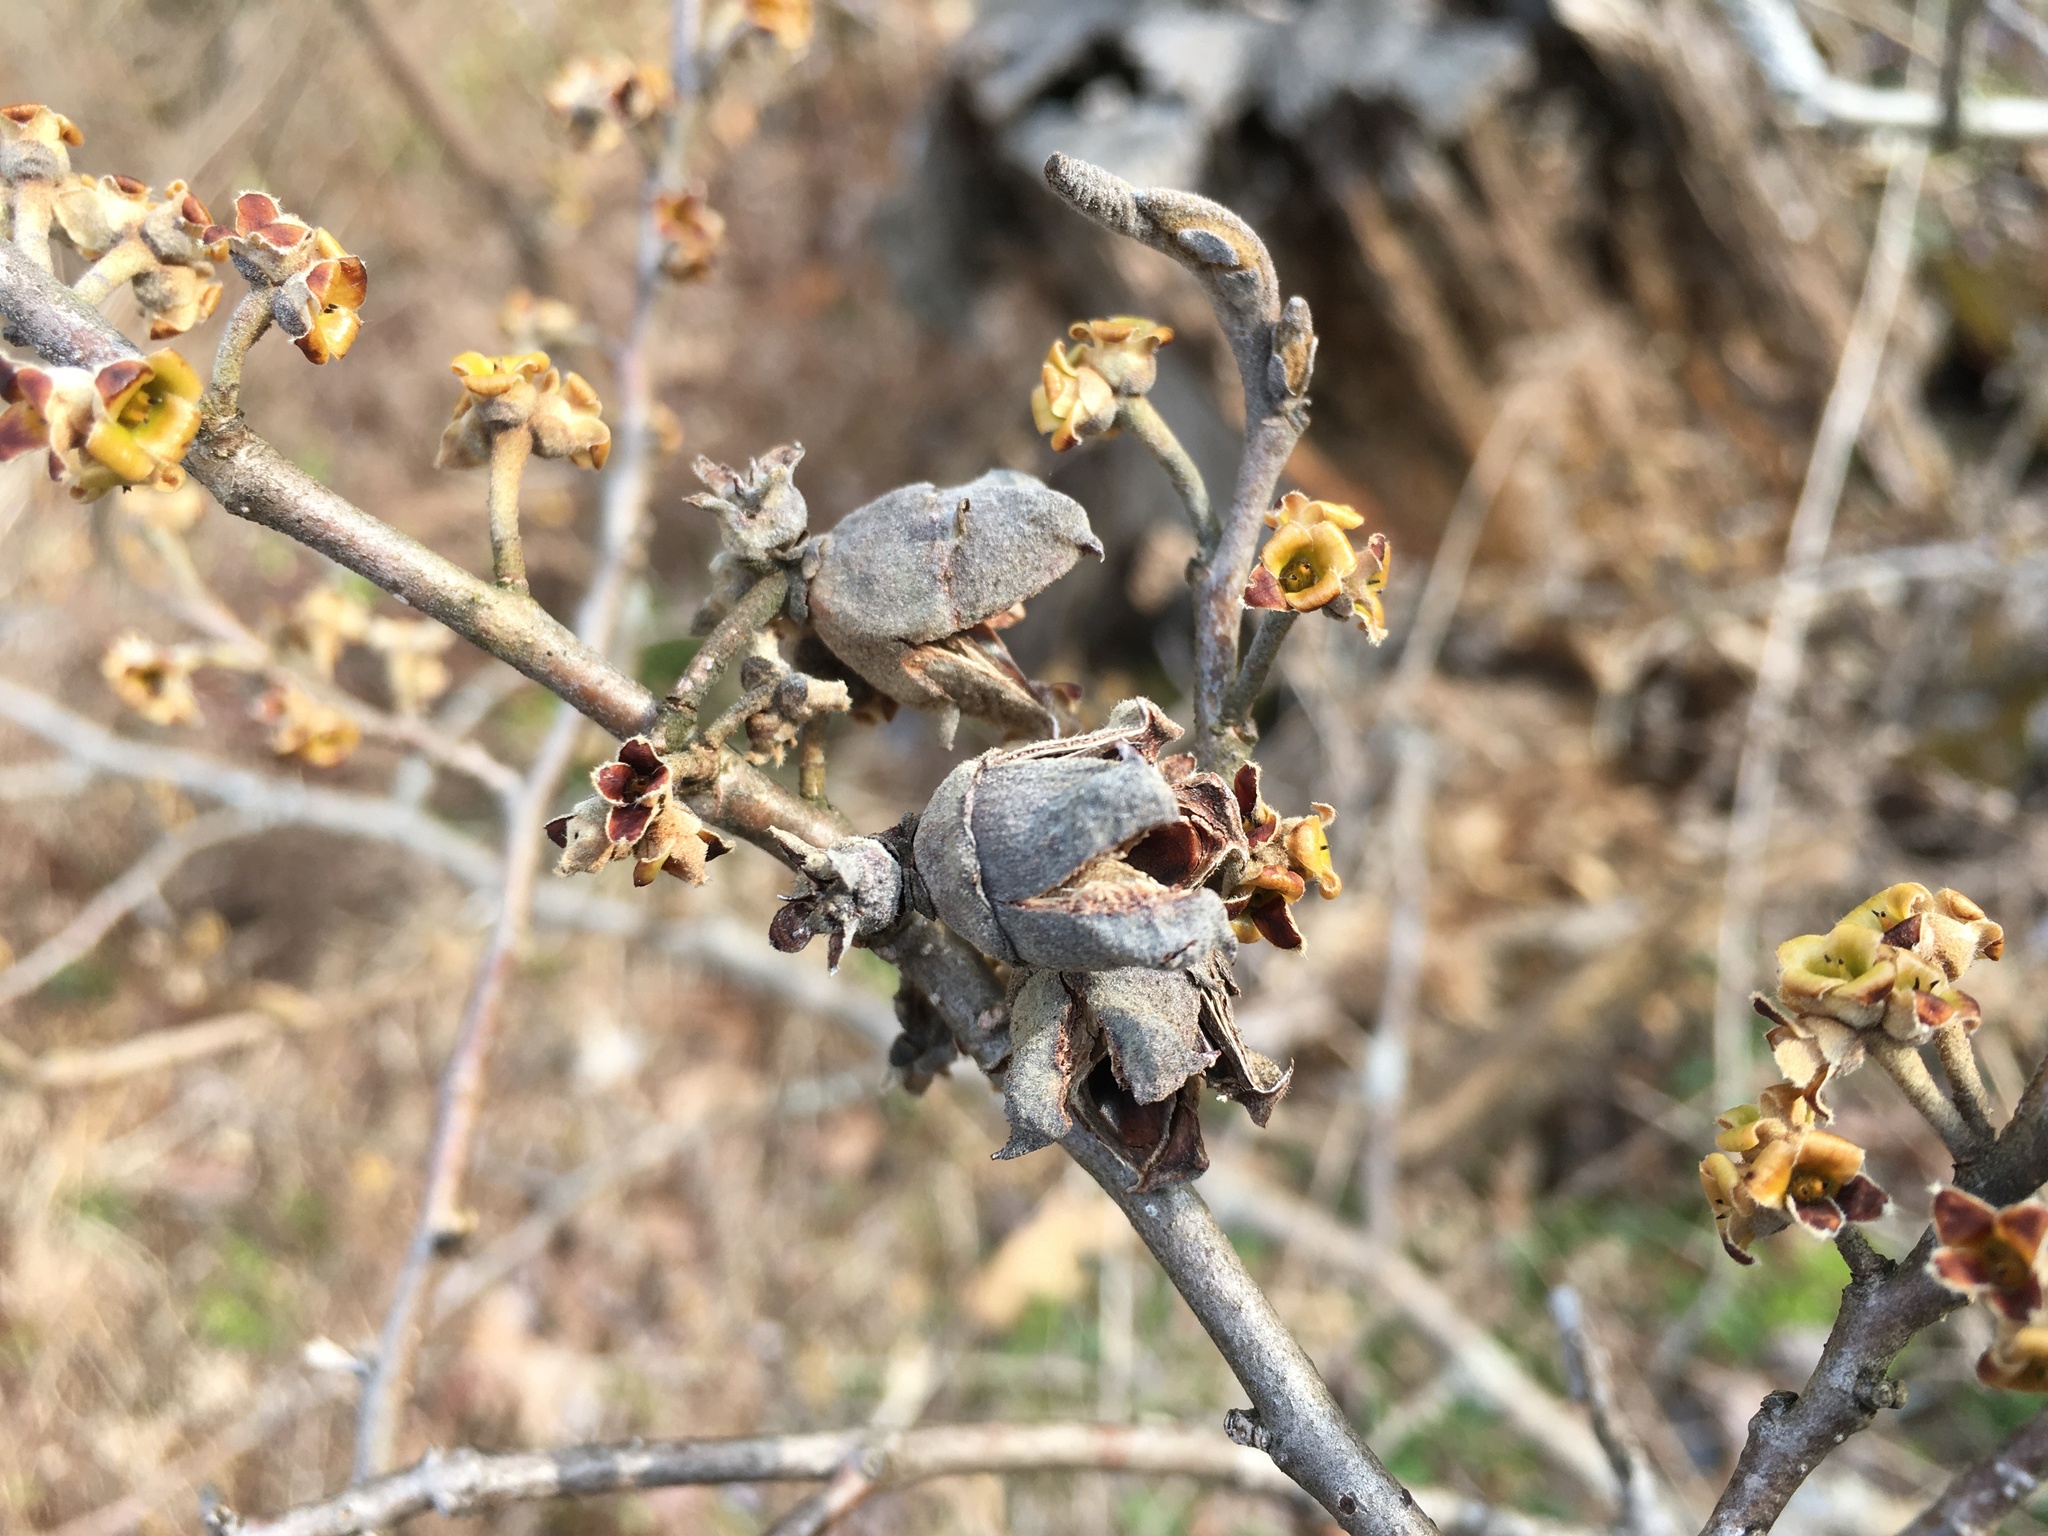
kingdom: Plantae
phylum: Tracheophyta
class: Magnoliopsida
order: Saxifragales
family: Hamamelidaceae
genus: Hamamelis
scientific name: Hamamelis virginiana
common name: Witch-hazel
